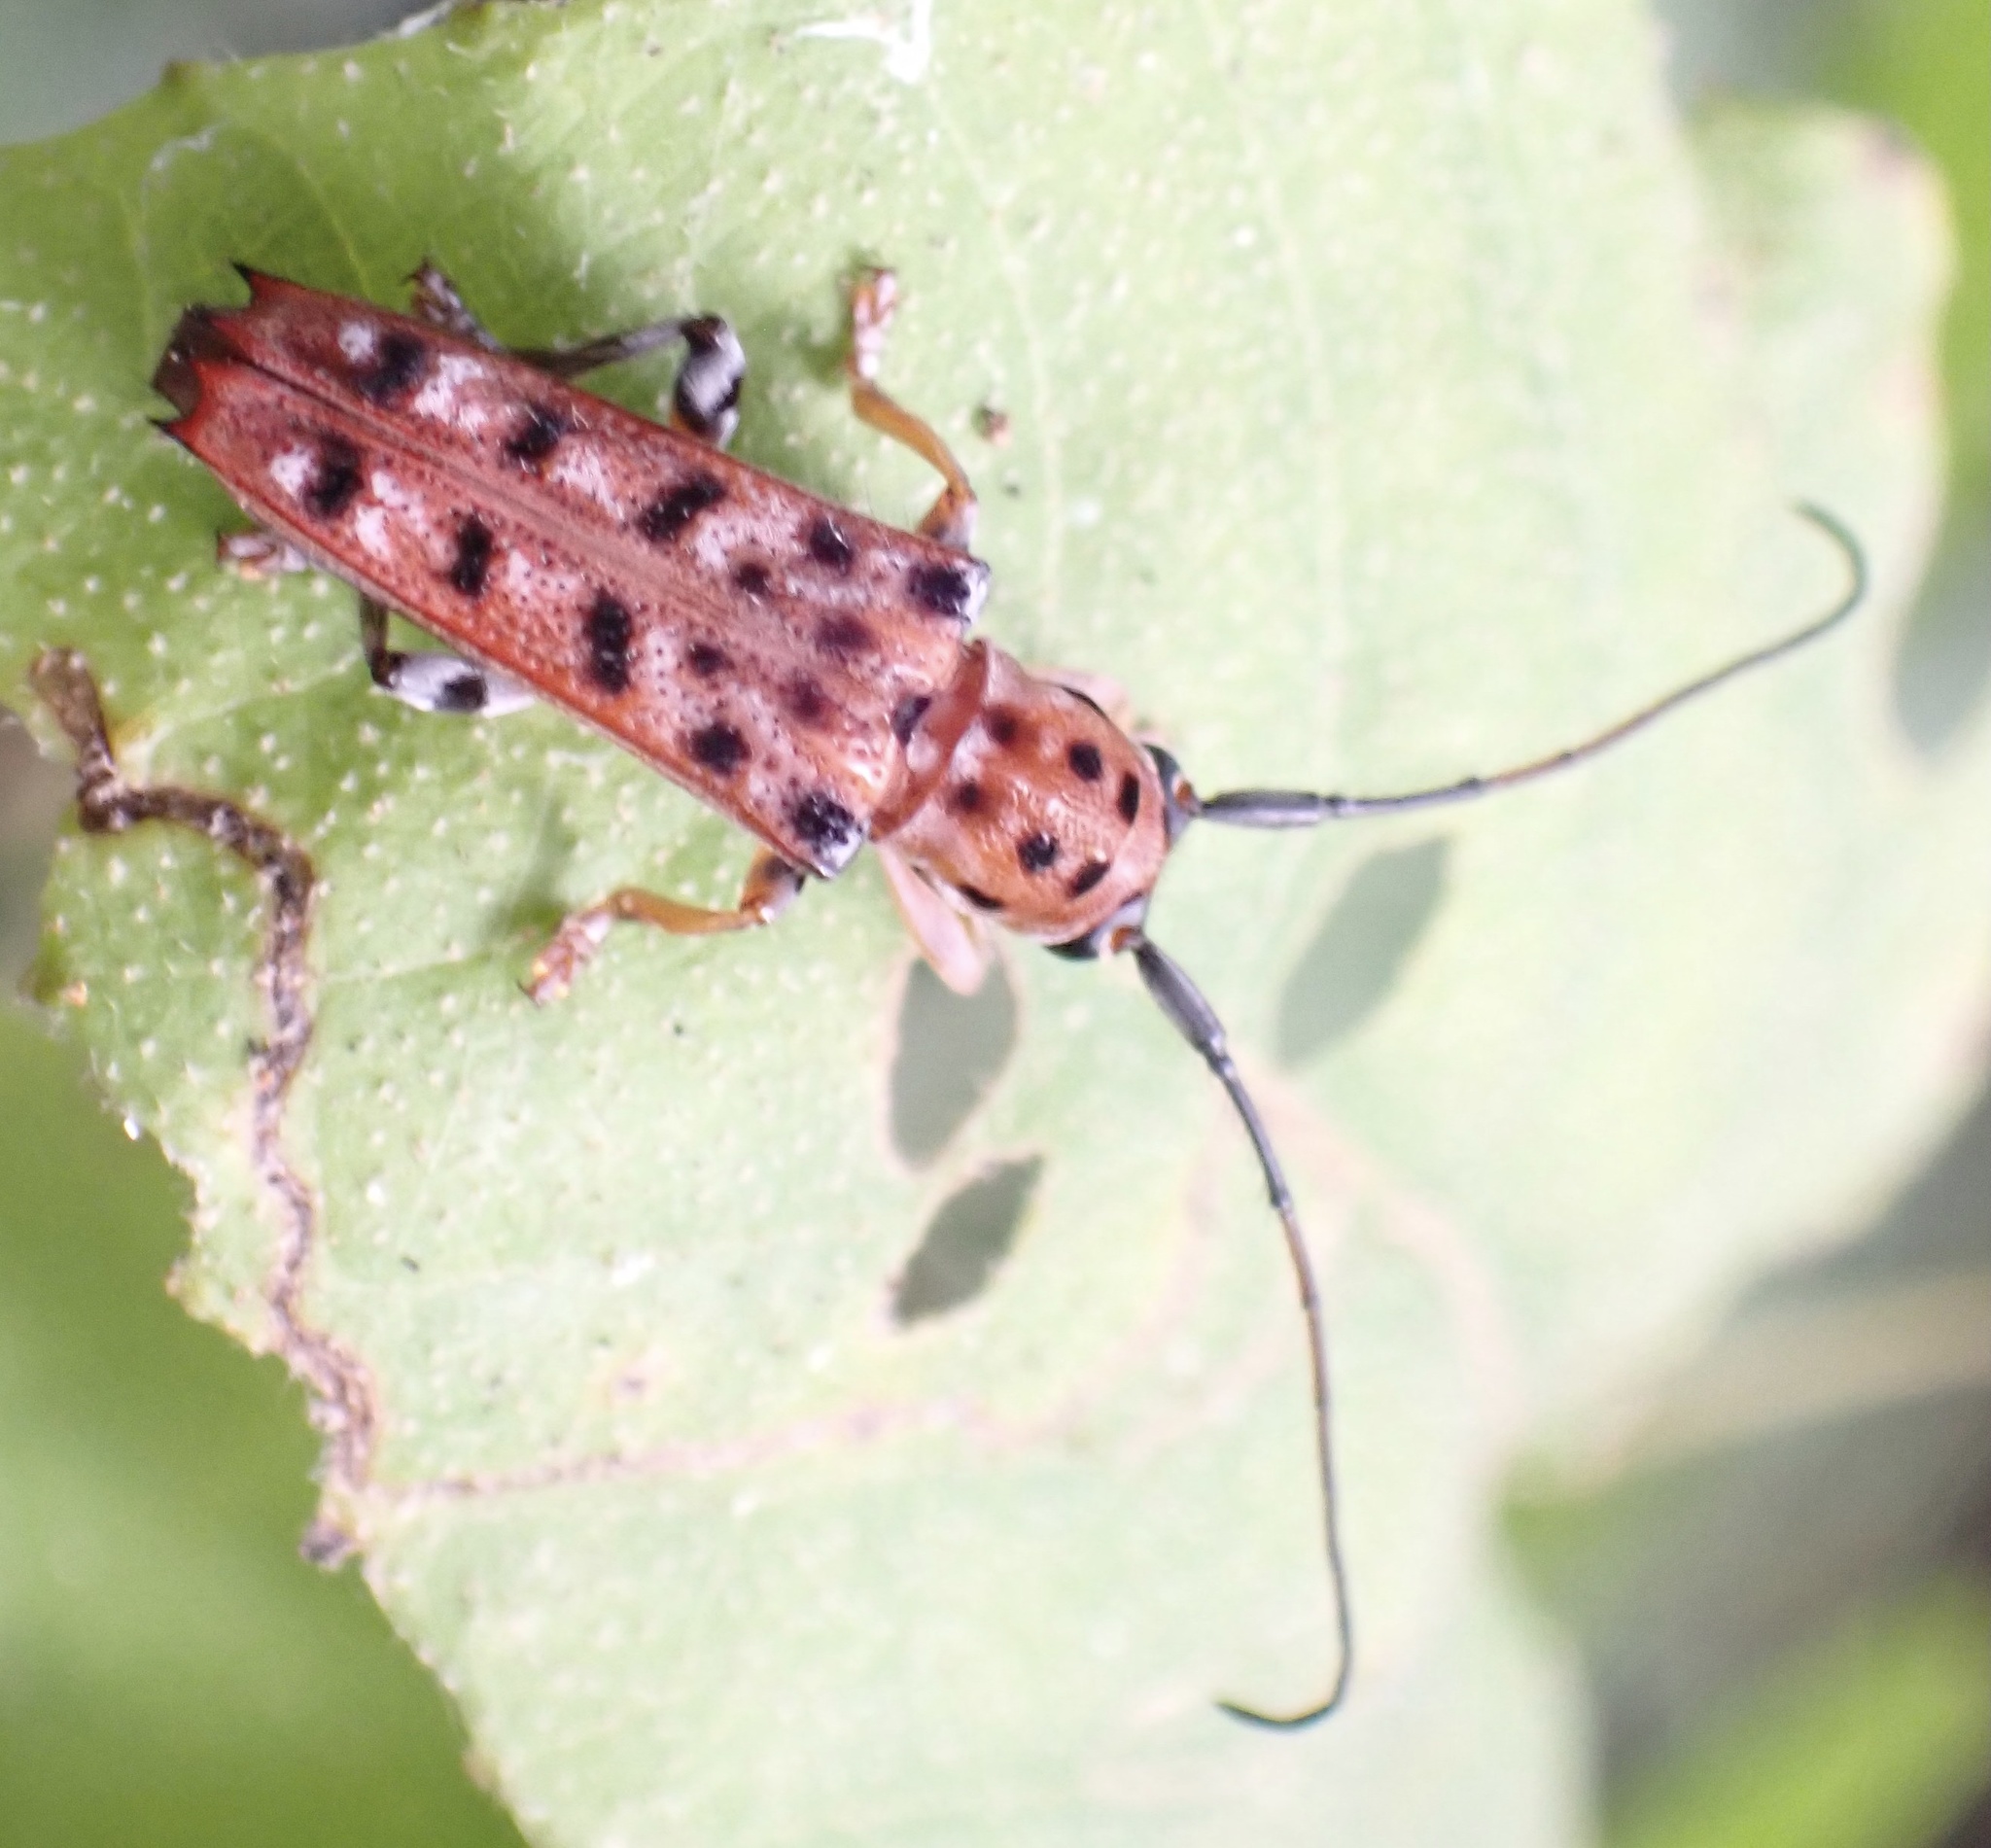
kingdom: Animalia
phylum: Arthropoda
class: Insecta
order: Coleoptera
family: Cerambycidae
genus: Glenea
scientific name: Glenea vigintiduomaculata
